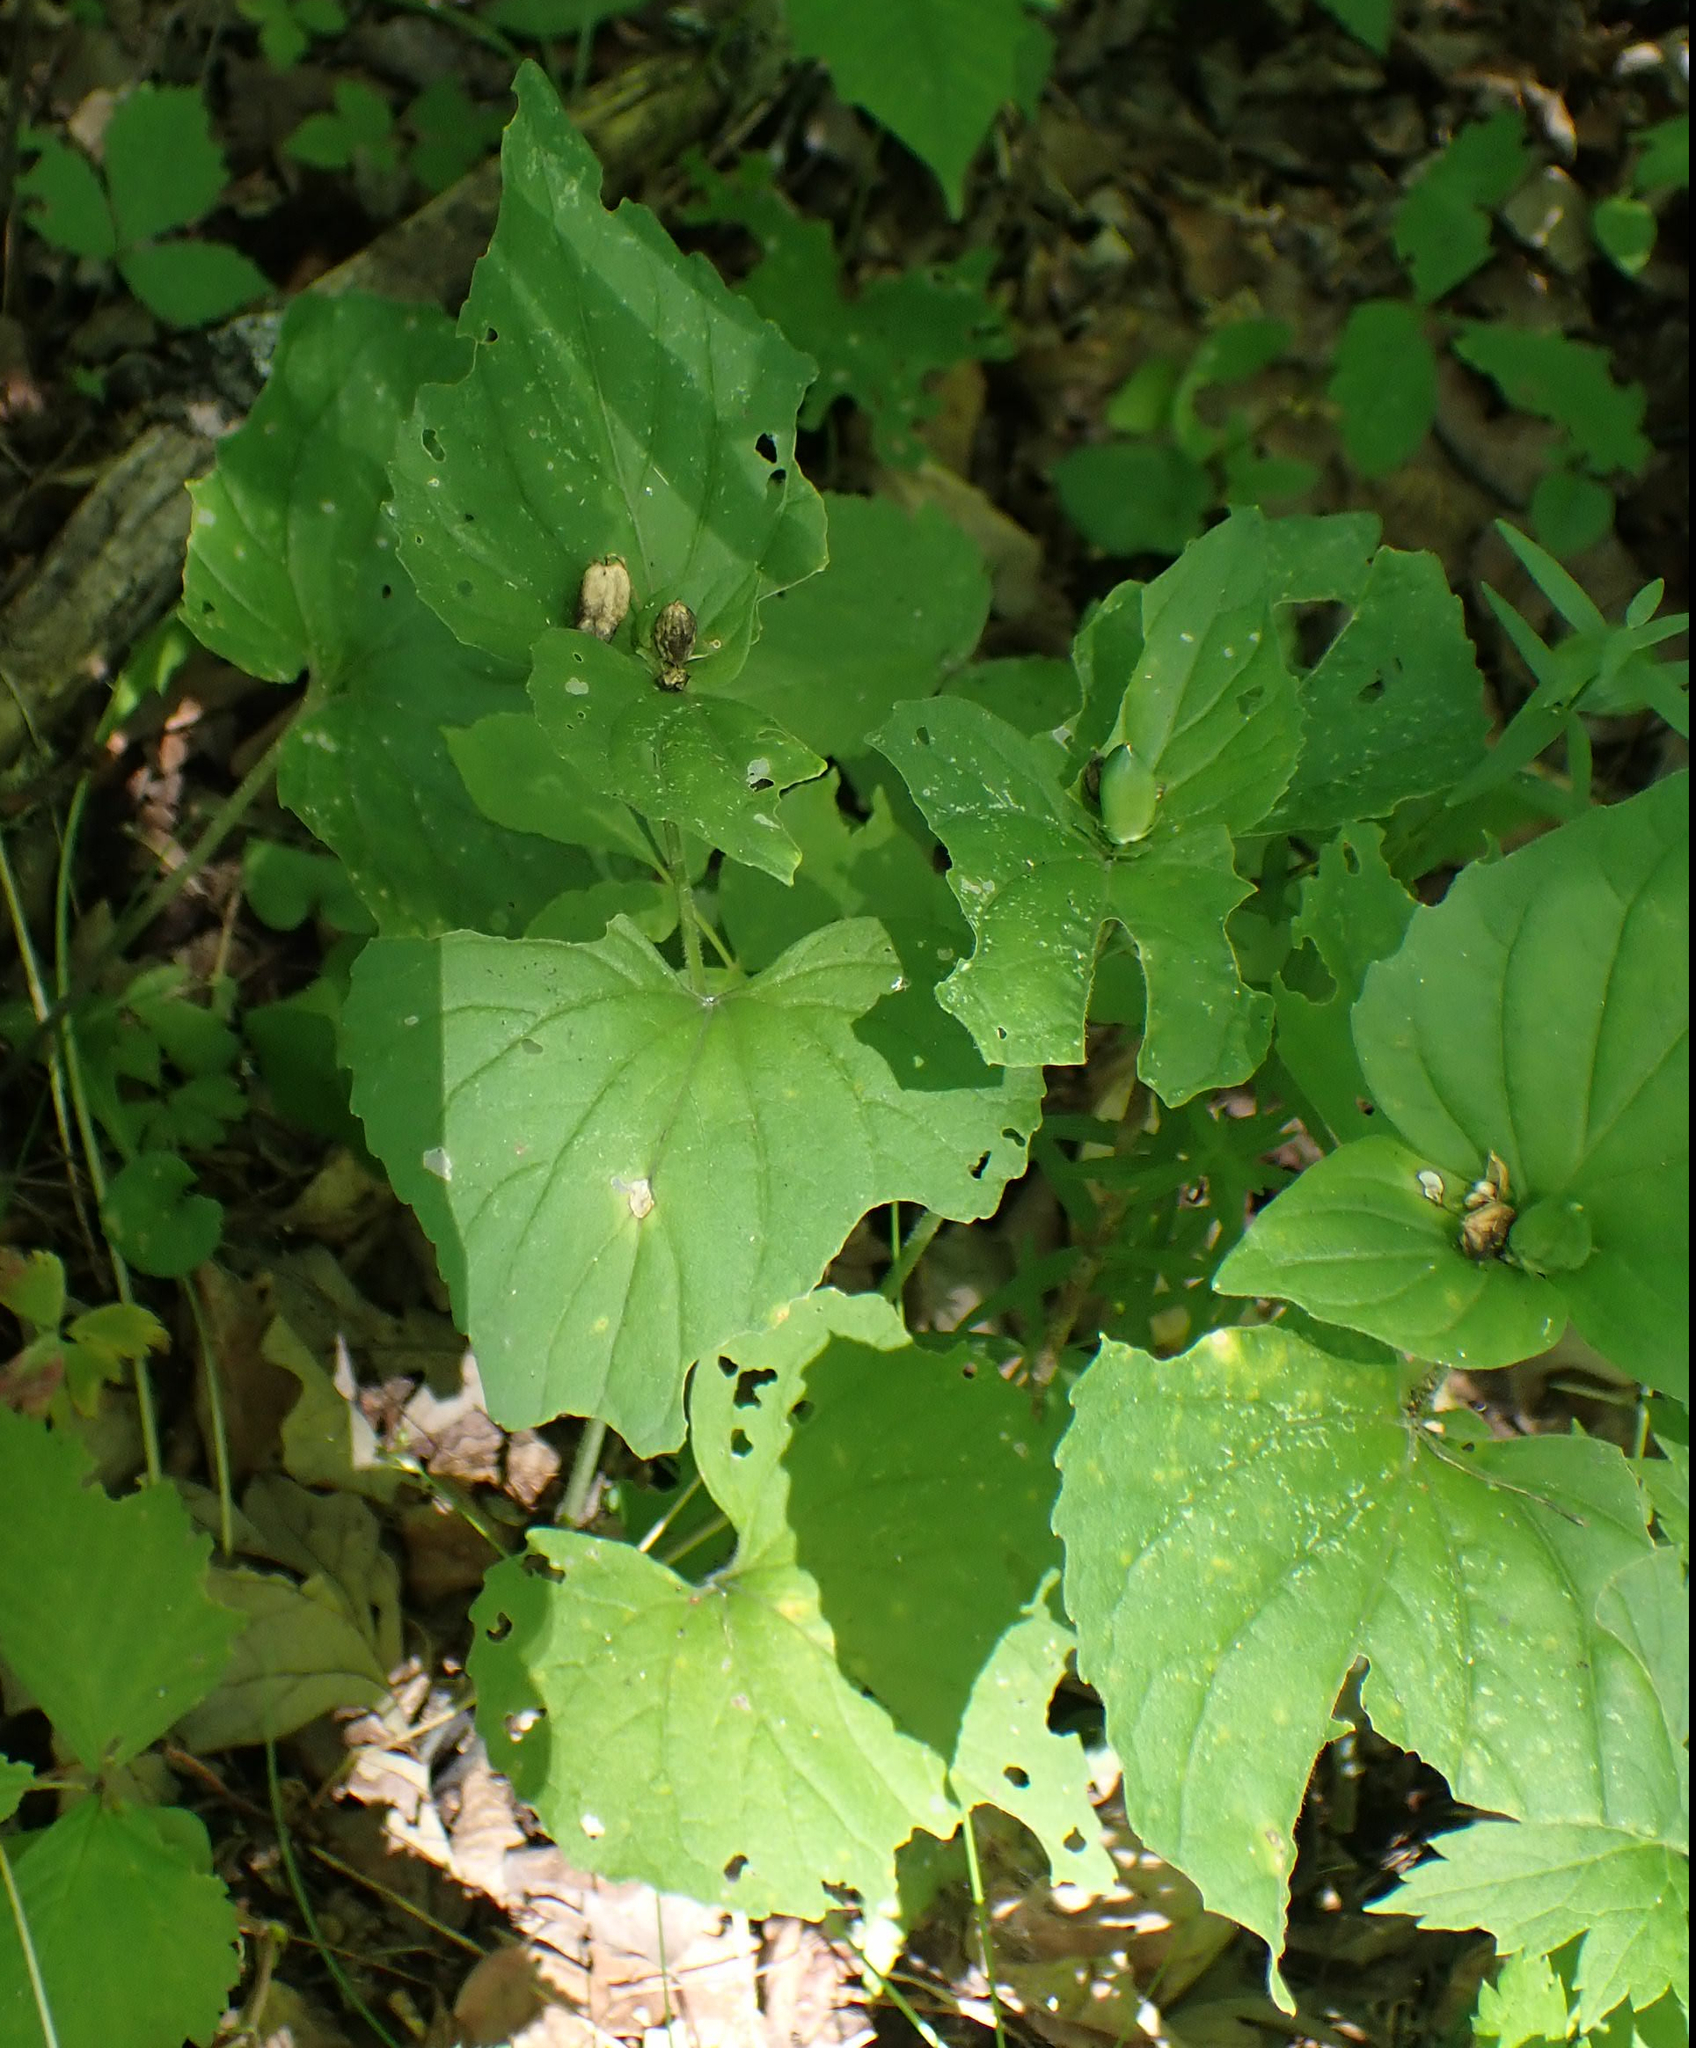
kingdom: Plantae
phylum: Tracheophyta
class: Magnoliopsida
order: Malpighiales
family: Violaceae
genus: Viola
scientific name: Viola eriocarpa
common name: Smooth yellow violet
